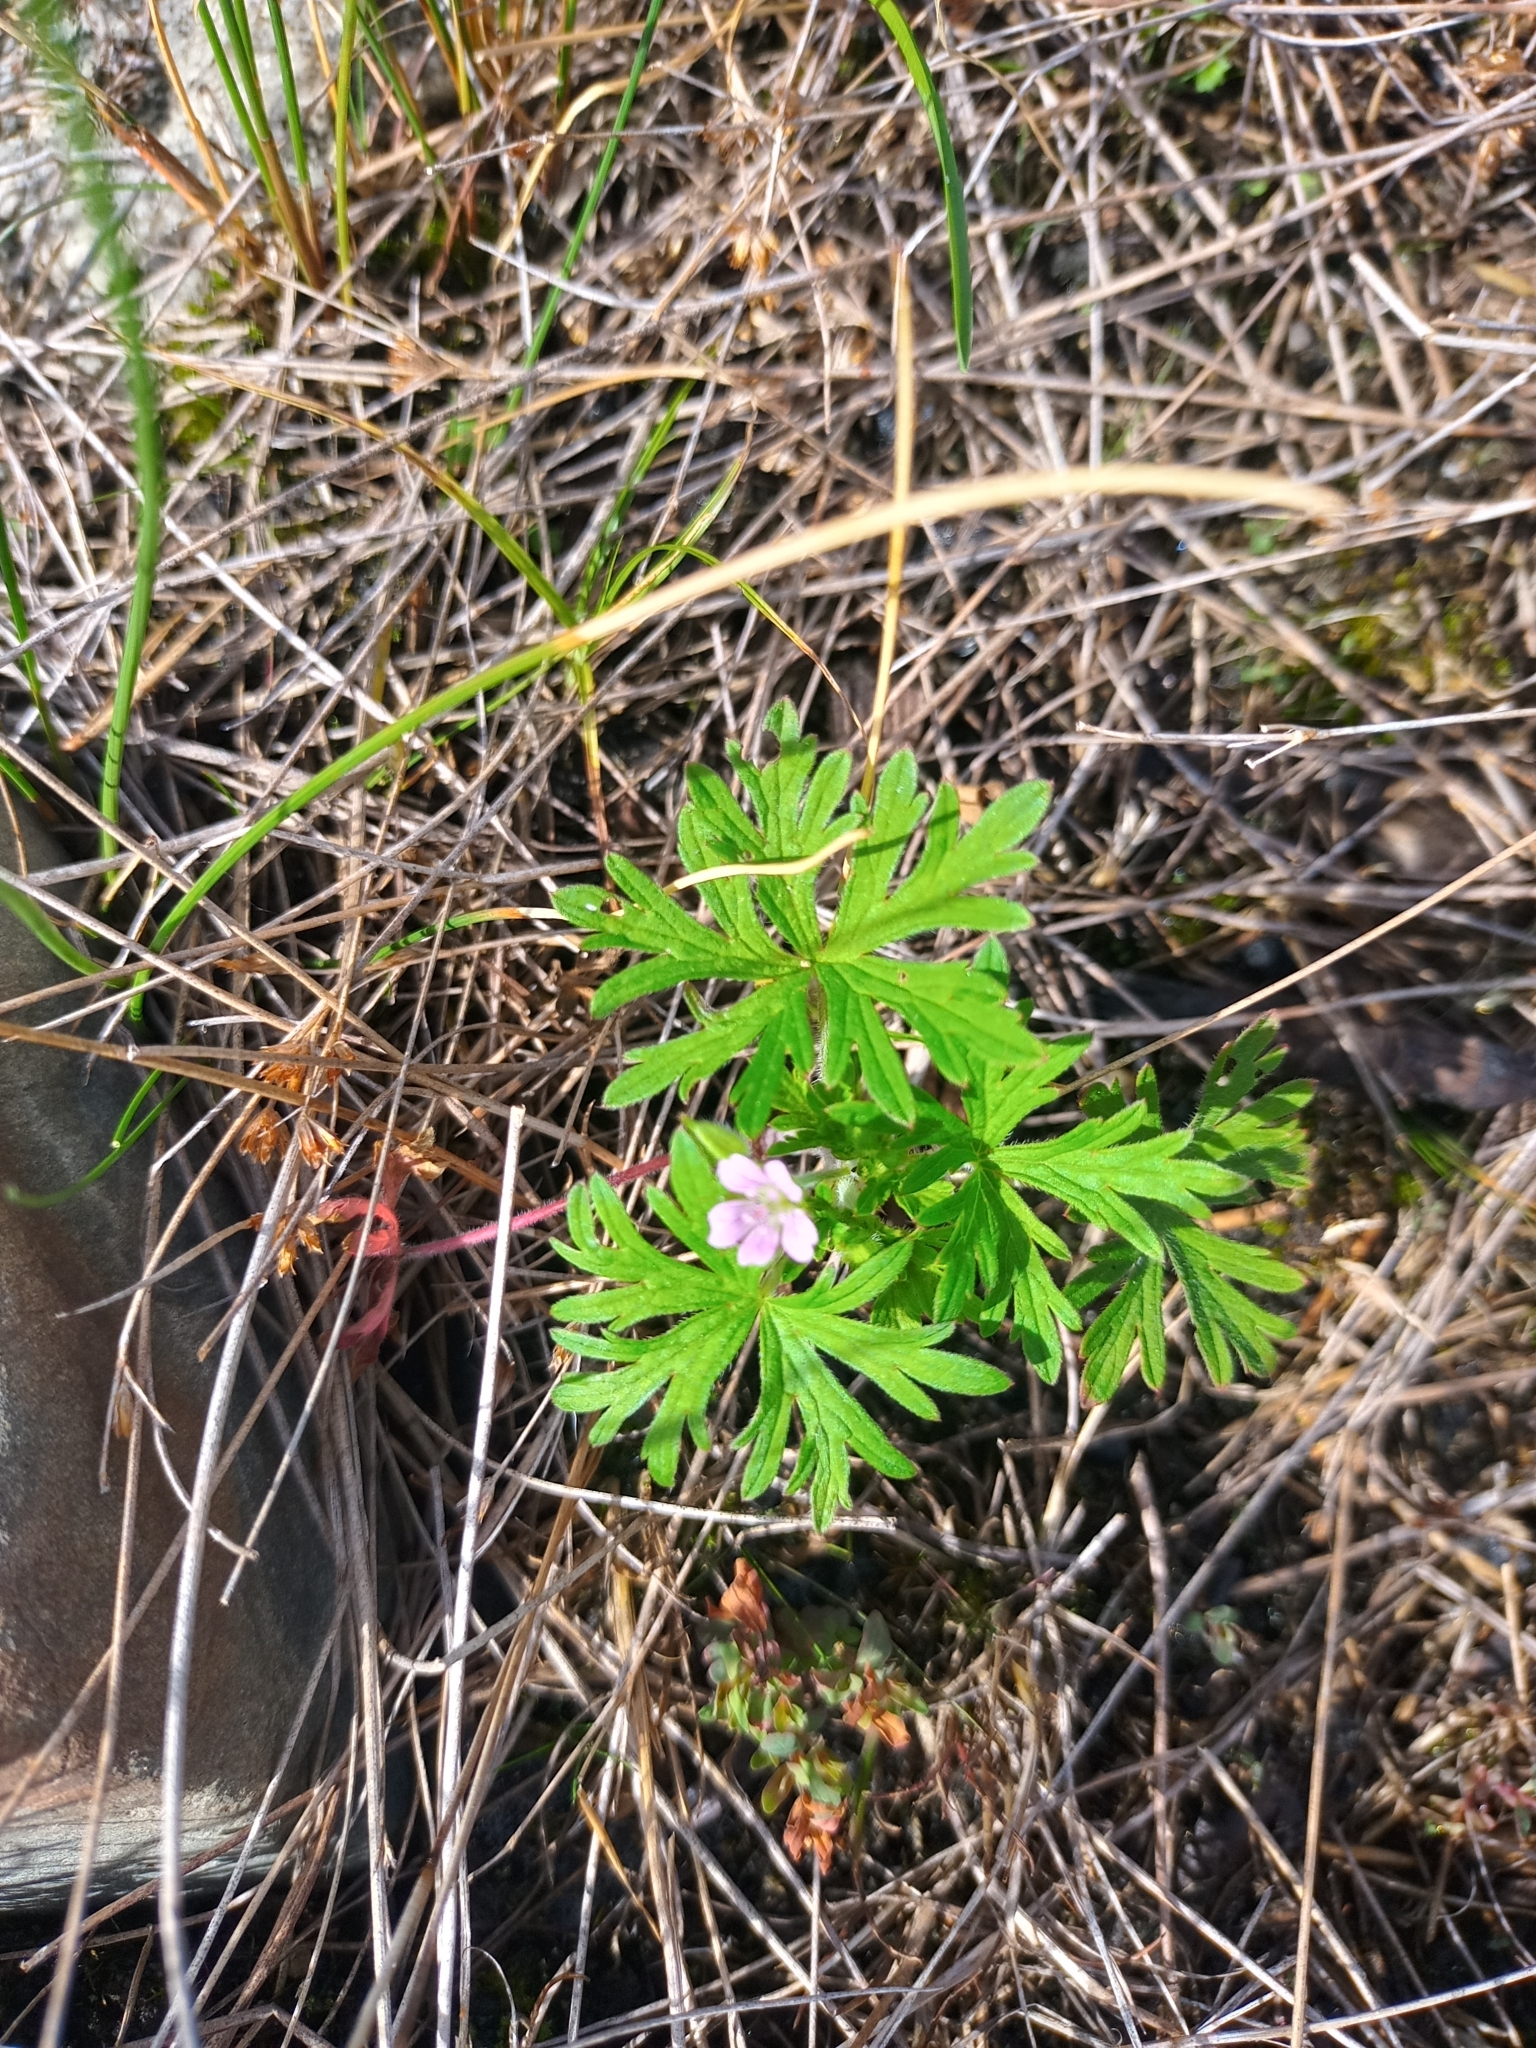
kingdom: Plantae
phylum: Tracheophyta
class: Magnoliopsida
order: Geraniales
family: Geraniaceae
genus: Geranium
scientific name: Geranium bicknellii
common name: Bicknell's cranesbill
